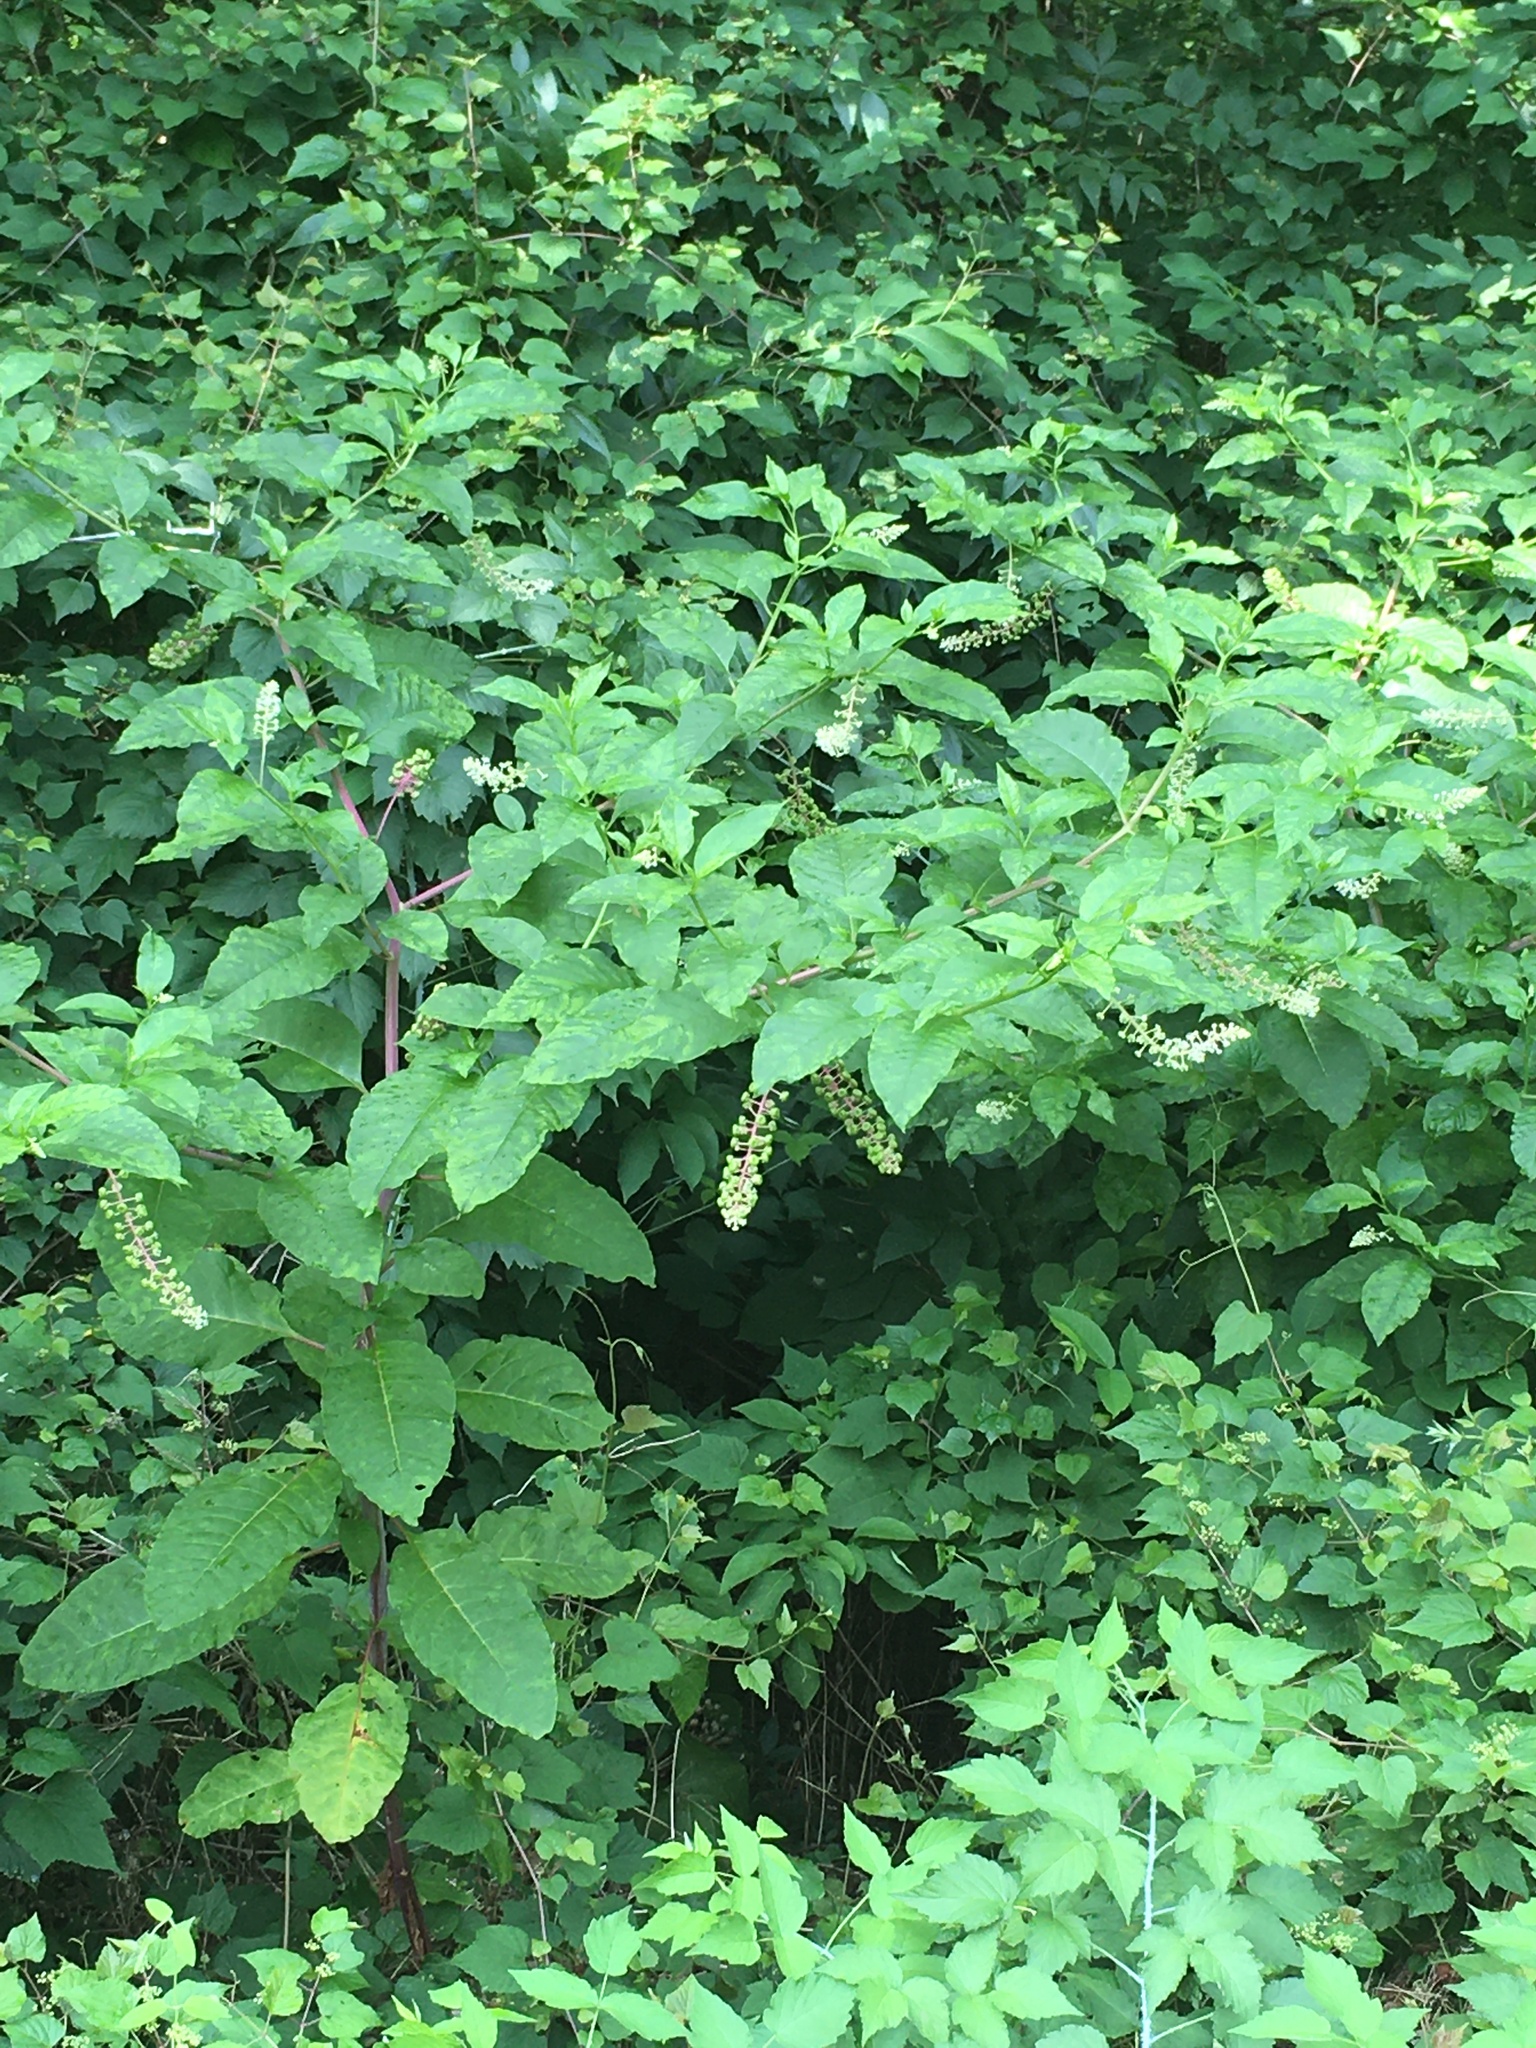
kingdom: Plantae
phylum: Tracheophyta
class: Magnoliopsida
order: Caryophyllales
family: Phytolaccaceae
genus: Phytolacca
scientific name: Phytolacca americana
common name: American pokeweed
